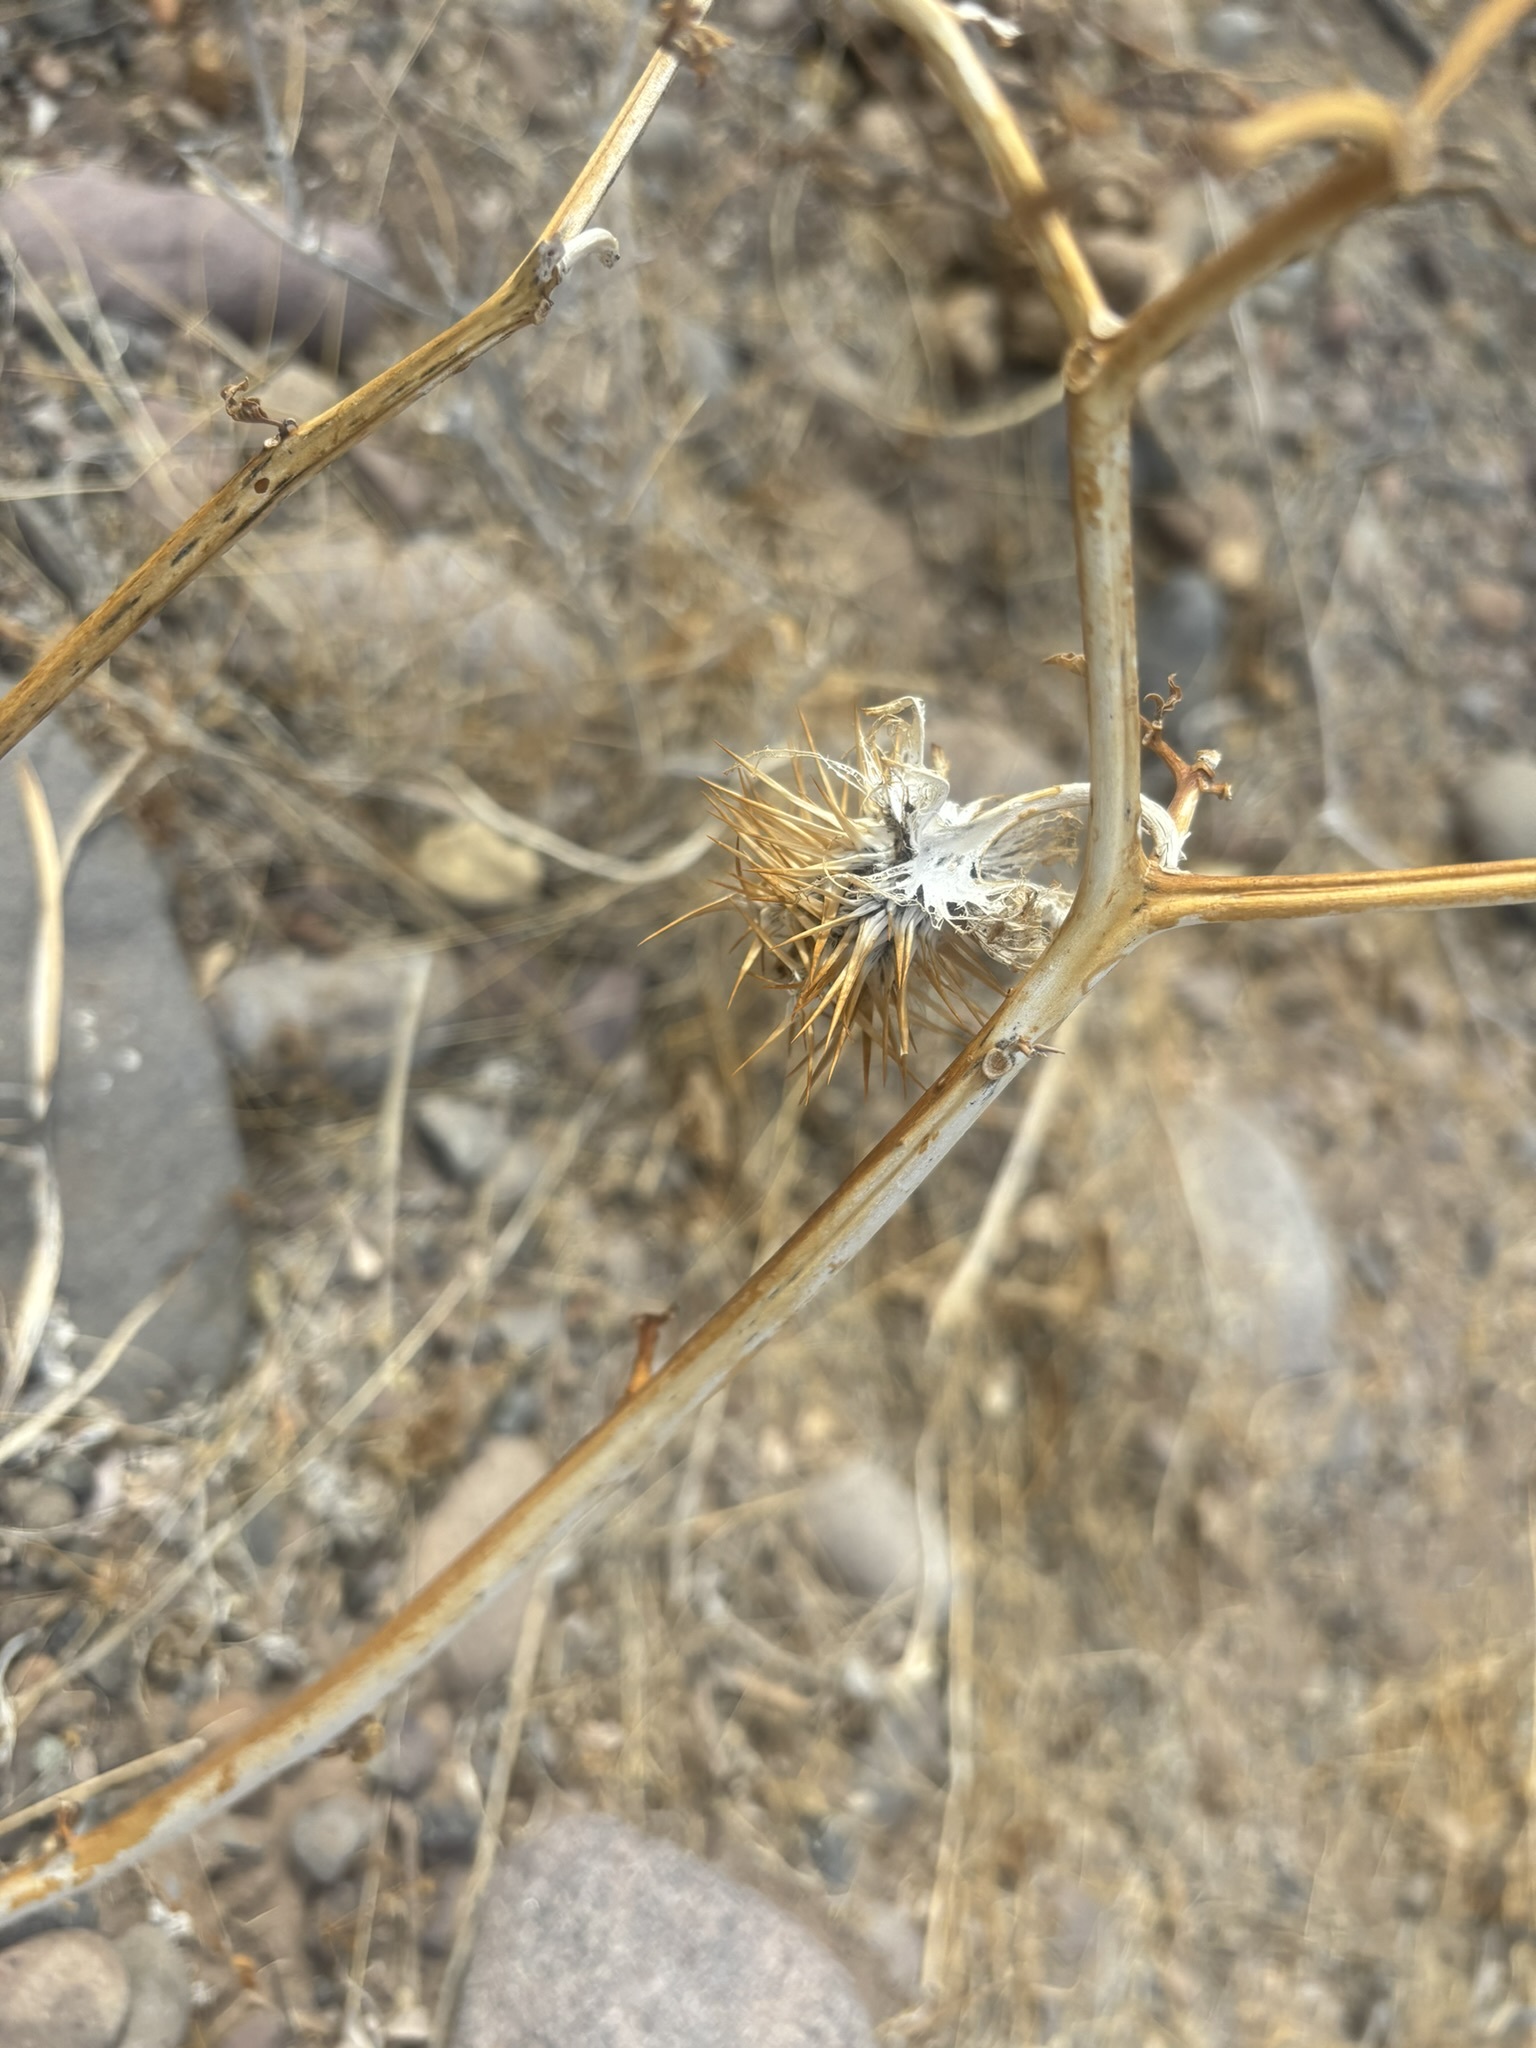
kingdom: Plantae
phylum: Tracheophyta
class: Magnoliopsida
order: Solanales
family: Solanaceae
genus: Datura
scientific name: Datura discolor
